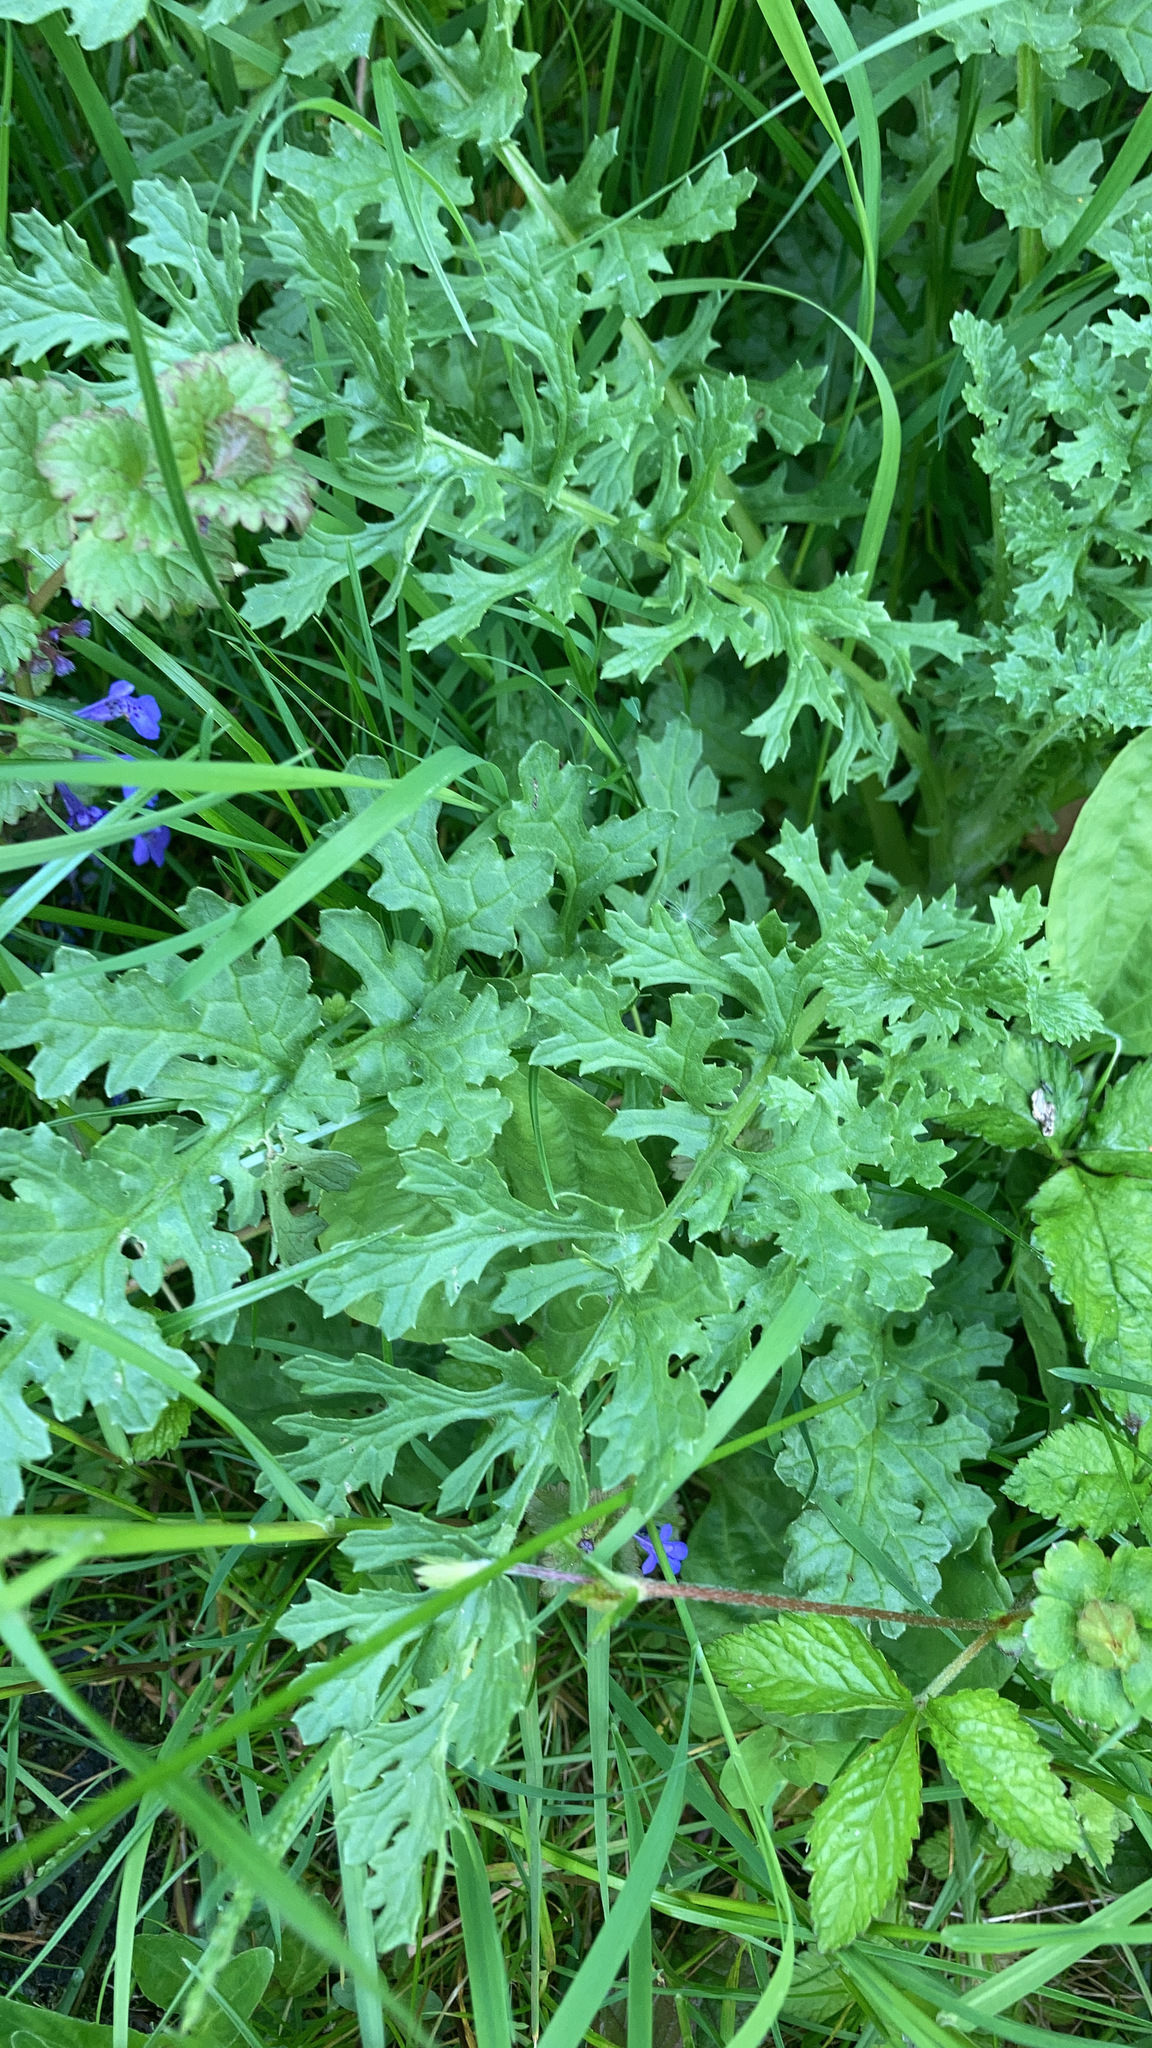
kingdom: Plantae
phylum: Tracheophyta
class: Magnoliopsida
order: Asterales
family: Asteraceae
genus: Jacobaea
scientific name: Jacobaea vulgaris
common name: Stinking willie
